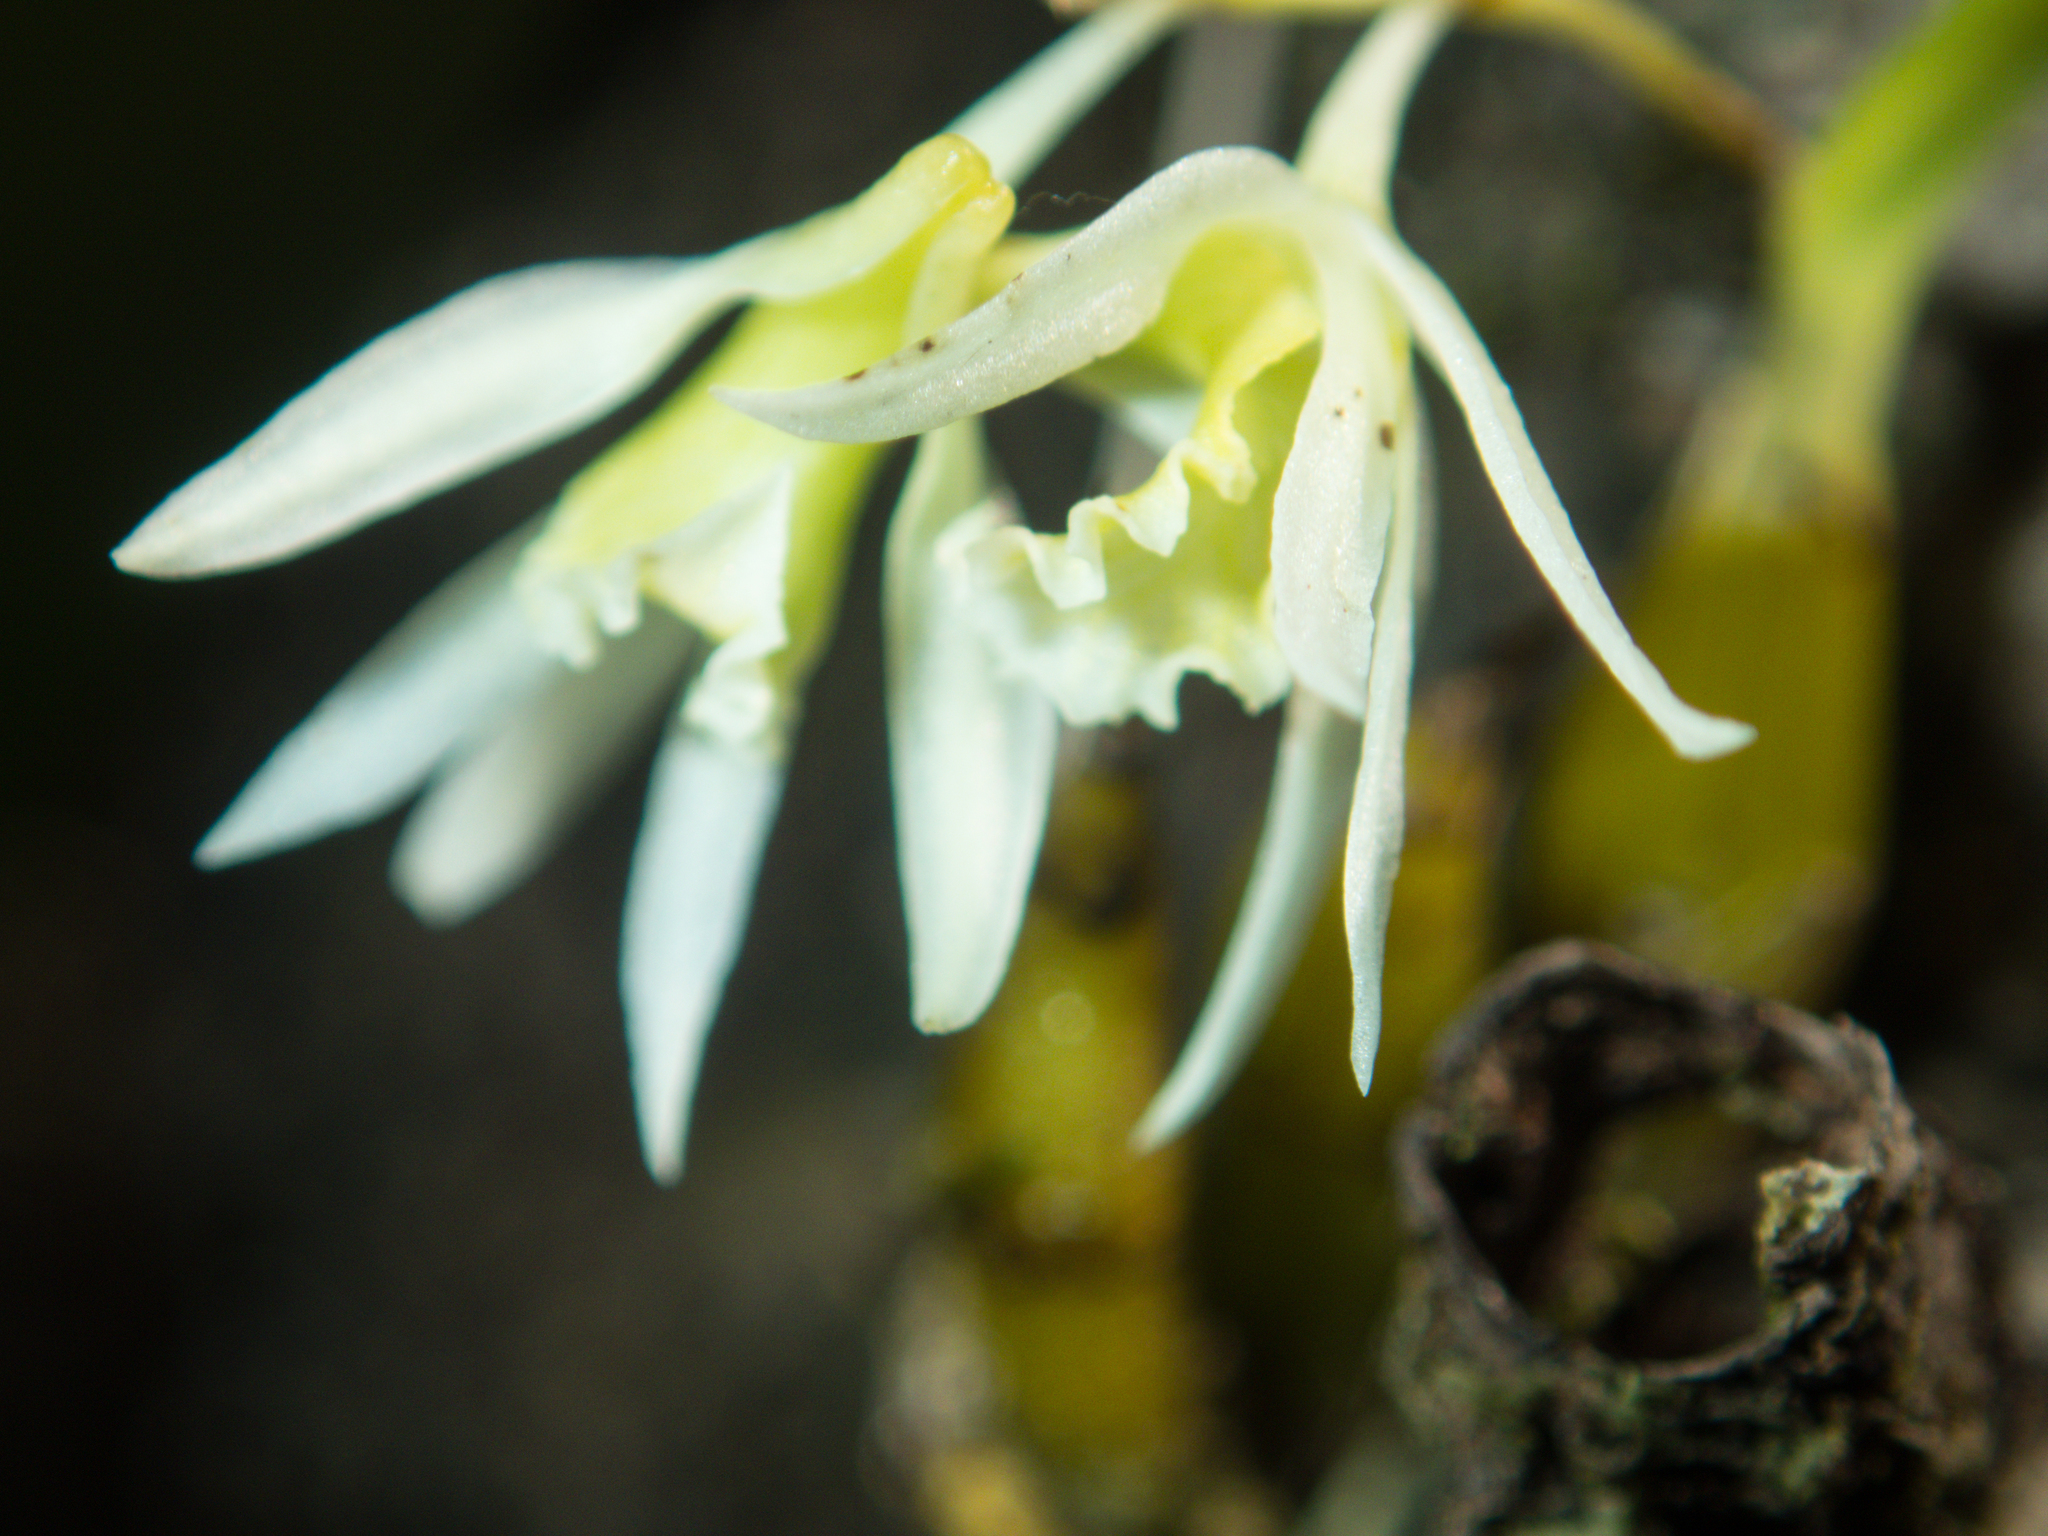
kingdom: Plantae
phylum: Tracheophyta
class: Liliopsida
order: Asparagales
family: Orchidaceae
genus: Dendrobium
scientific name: Dendrobium kratense
